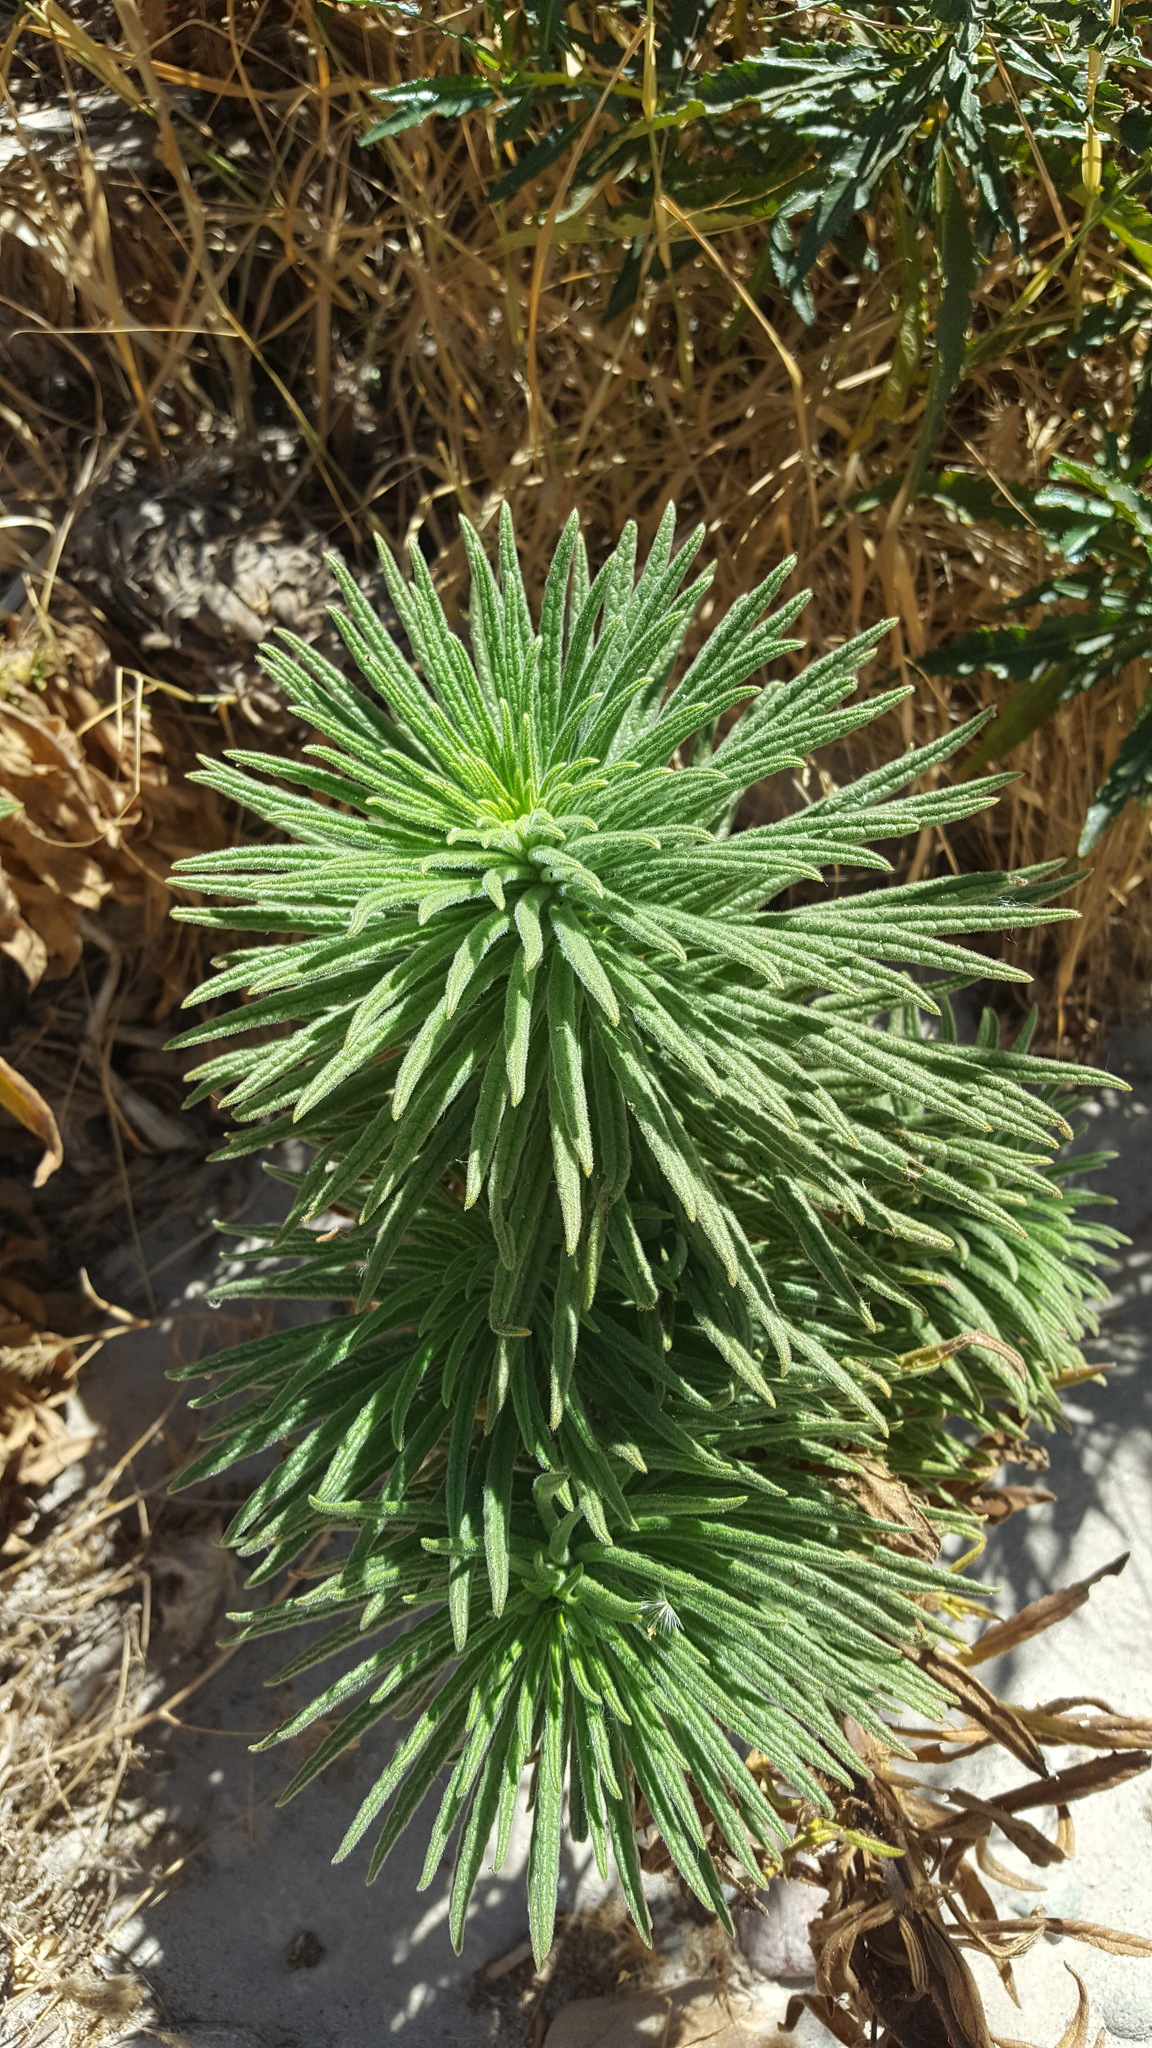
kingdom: Plantae
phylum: Tracheophyta
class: Magnoliopsida
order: Boraginales
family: Namaceae
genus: Turricula
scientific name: Turricula parryi
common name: Poodle-dog-bush
